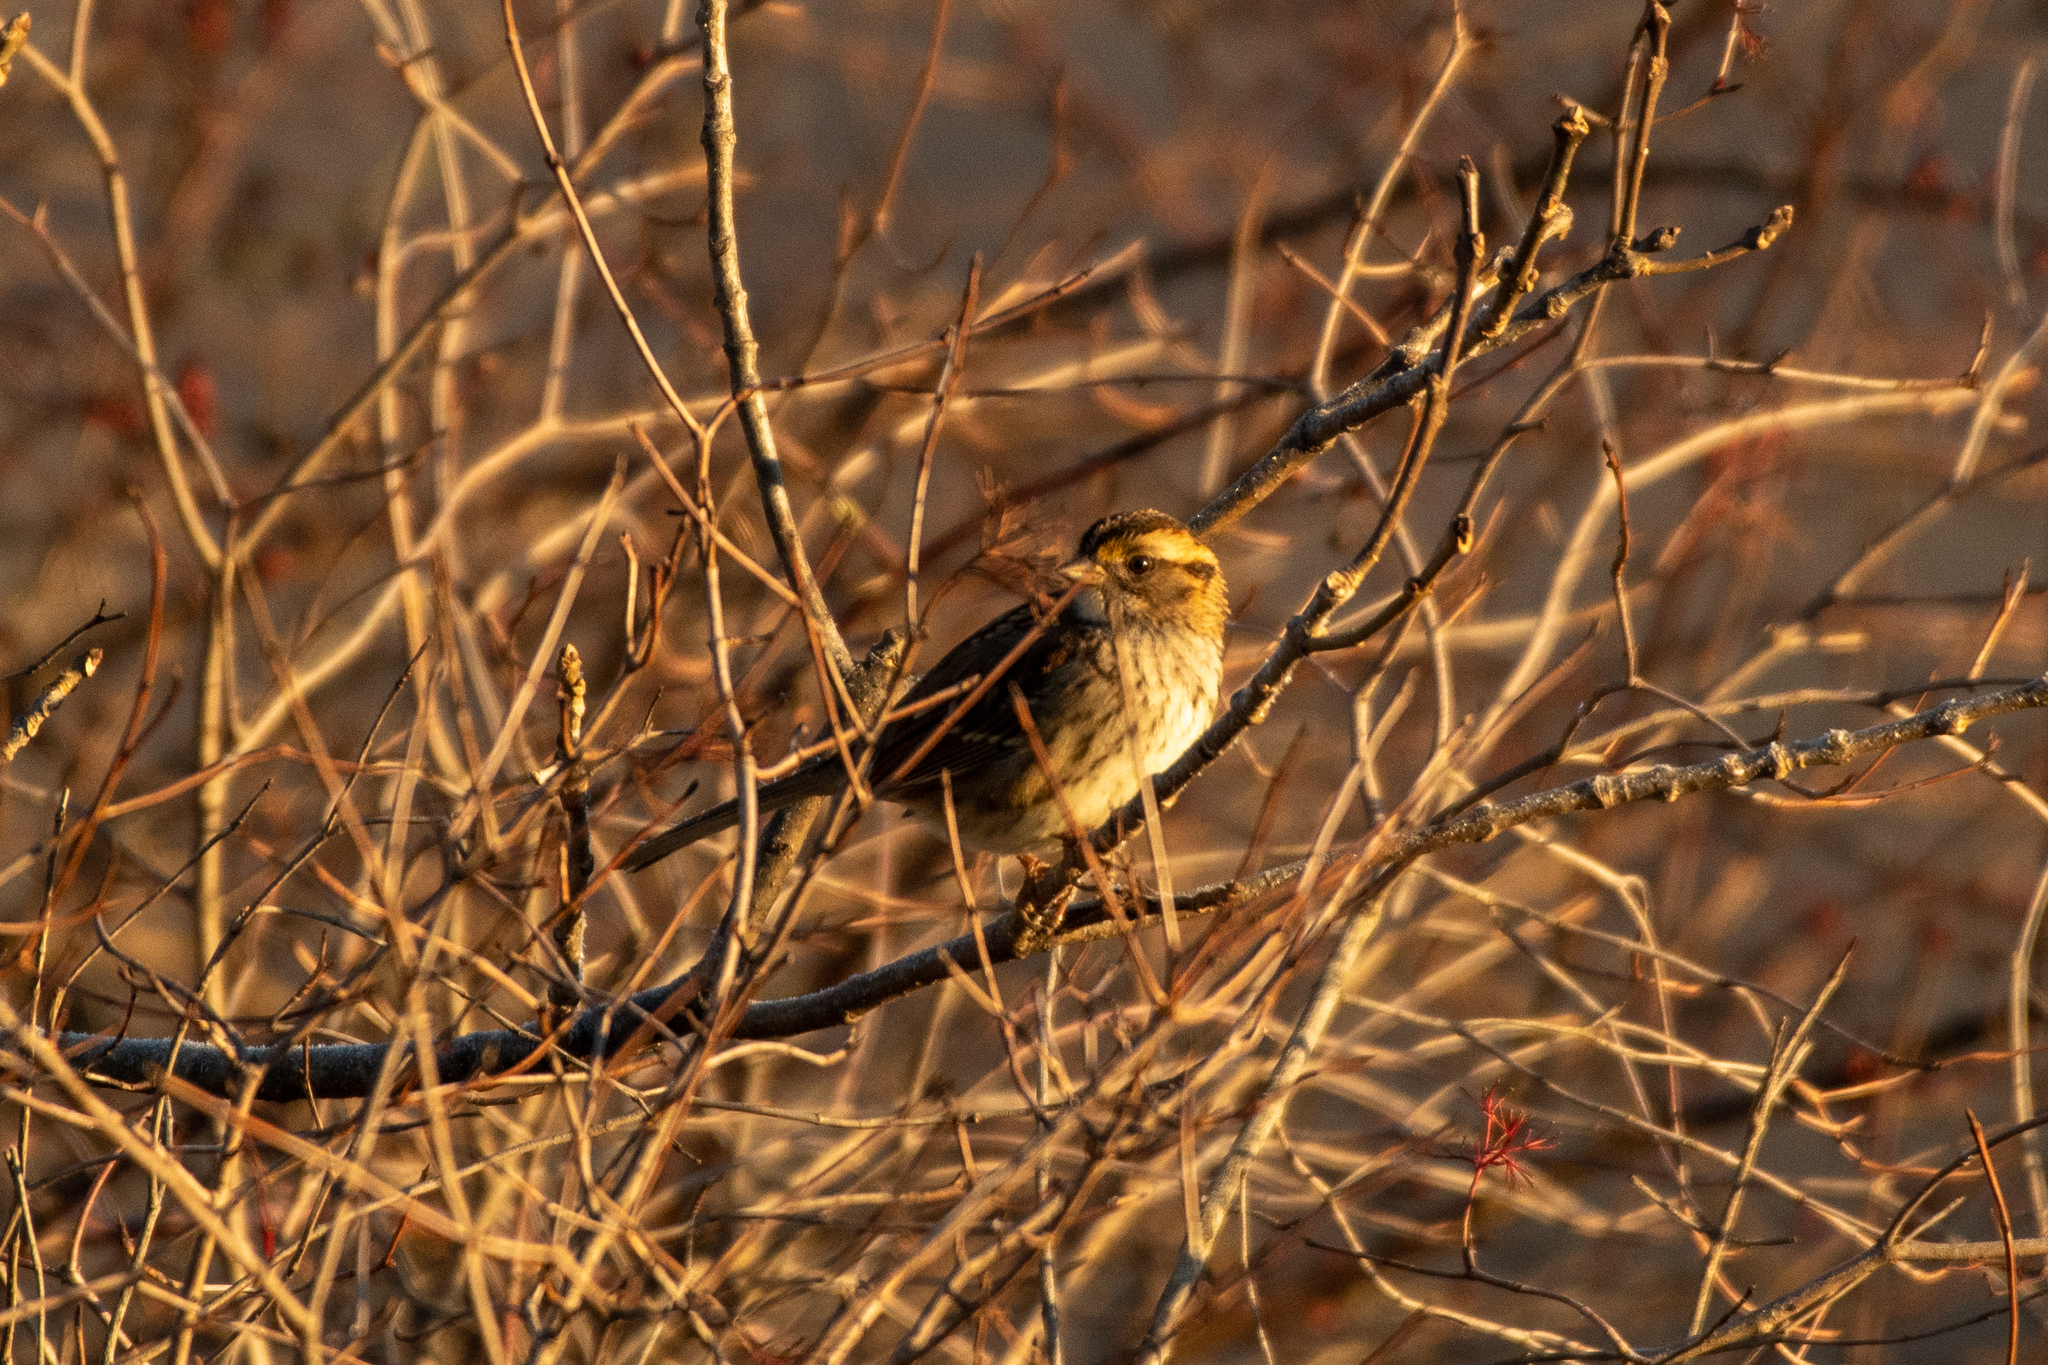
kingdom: Animalia
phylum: Chordata
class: Aves
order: Passeriformes
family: Passerellidae
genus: Zonotrichia
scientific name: Zonotrichia albicollis
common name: White-throated sparrow
